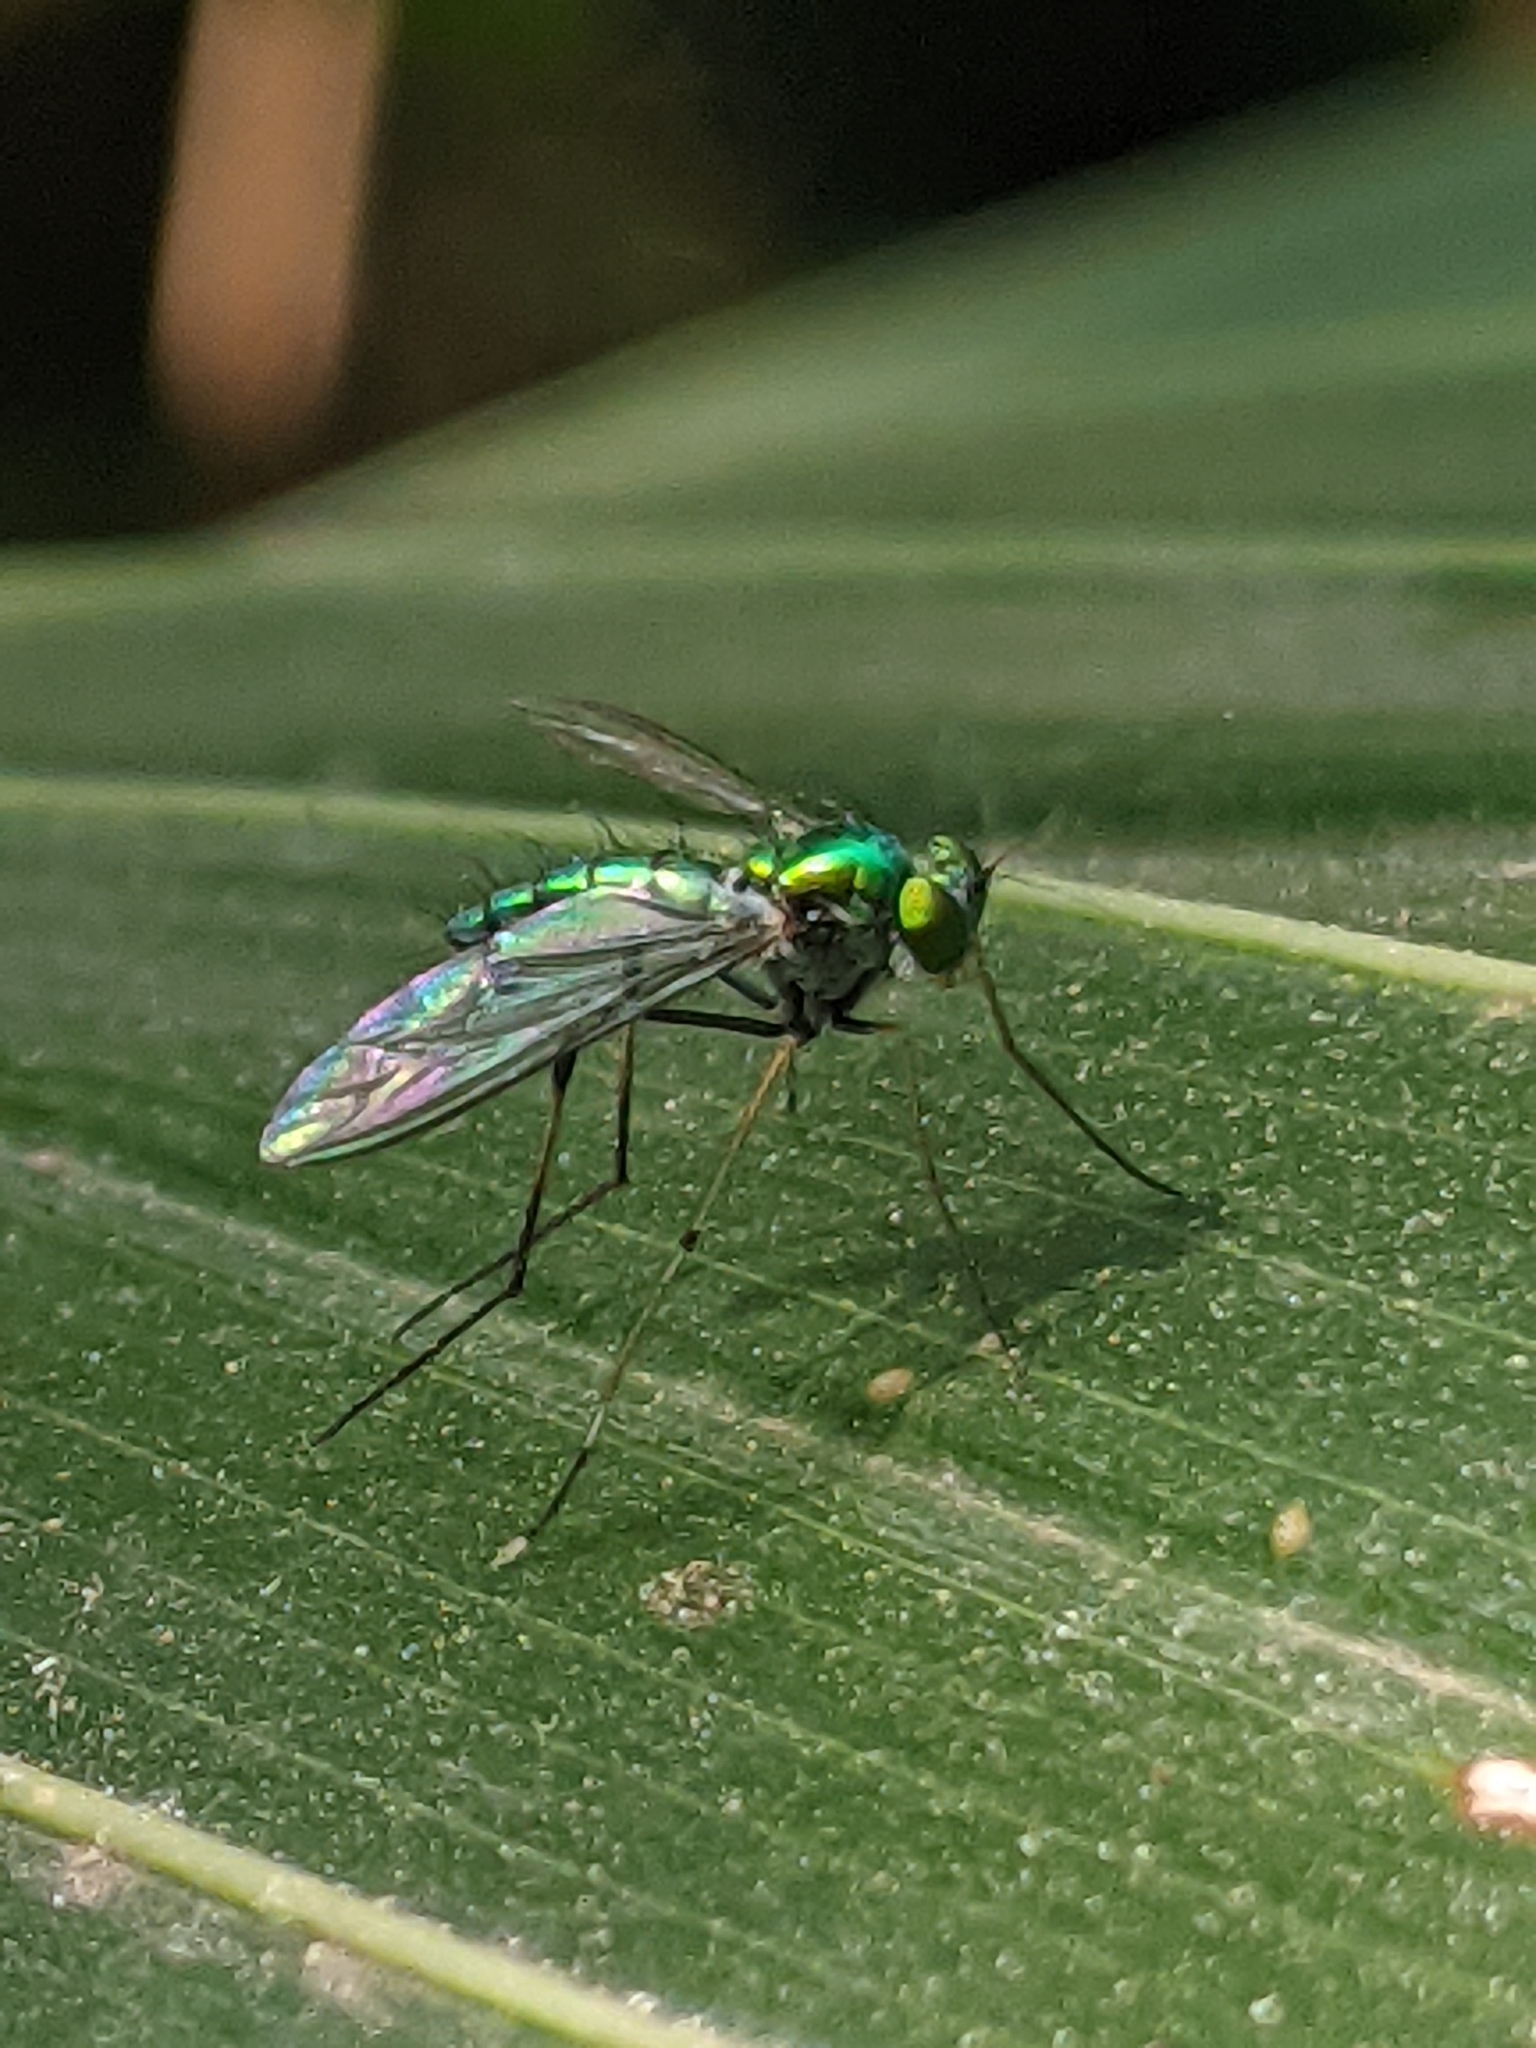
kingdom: Animalia
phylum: Arthropoda
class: Insecta
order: Diptera
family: Dolichopodidae
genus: Chrysosoma
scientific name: Chrysosoma leucopogon
